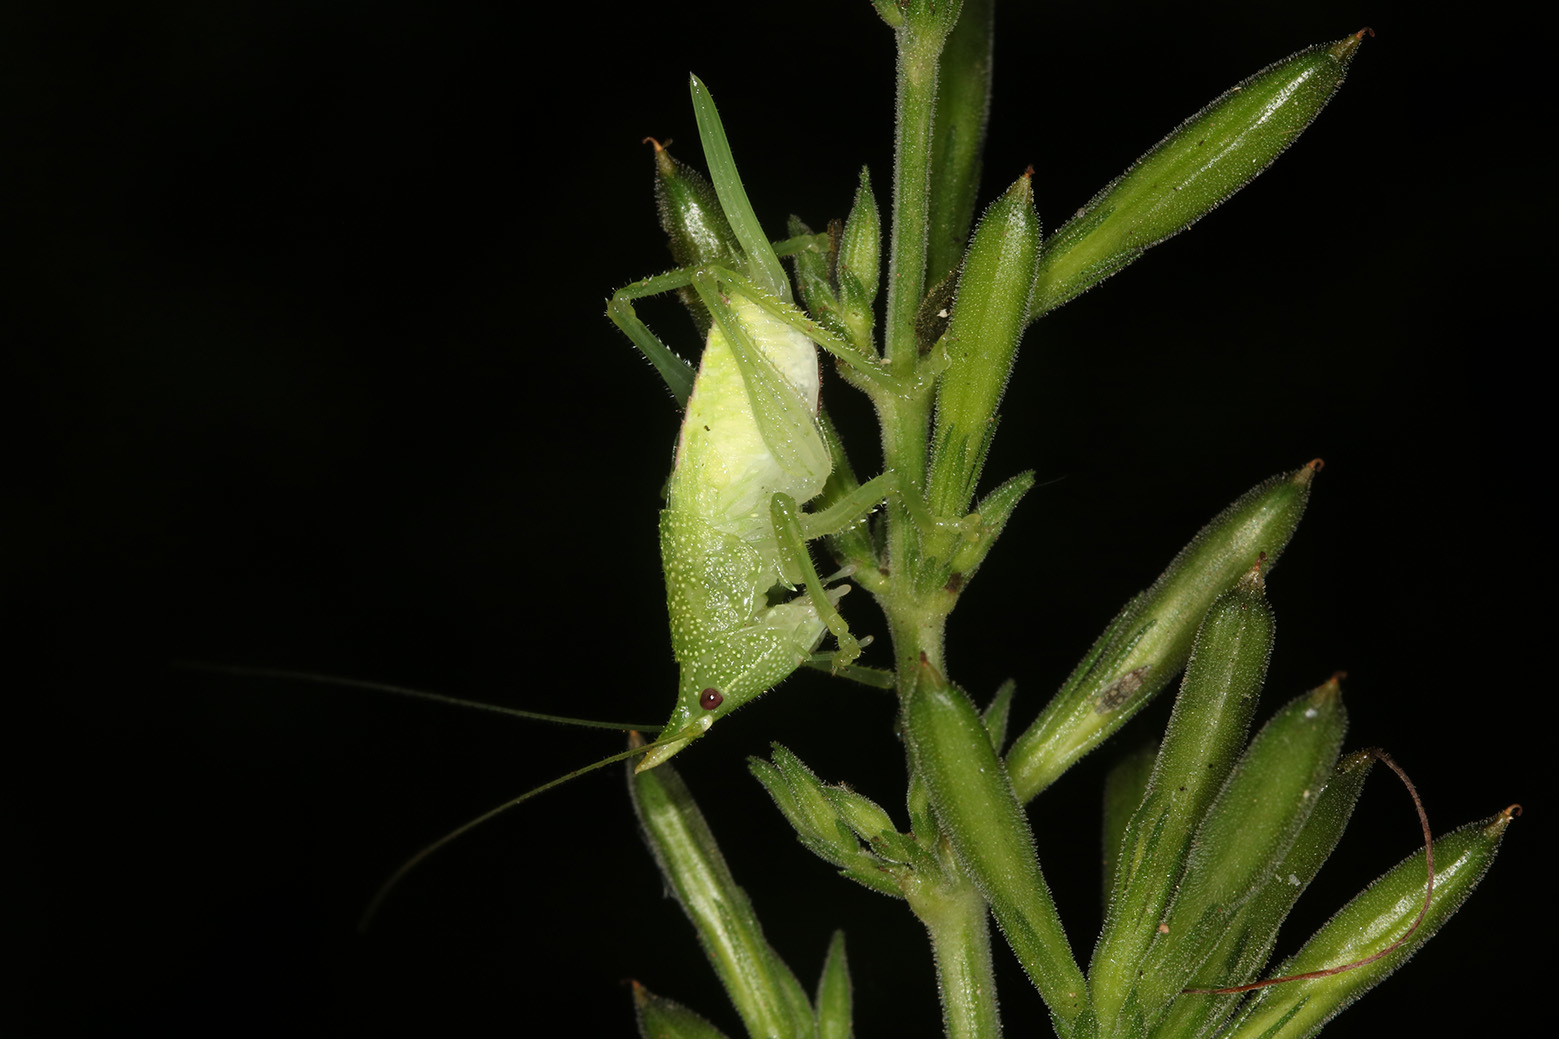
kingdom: Animalia
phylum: Arthropoda
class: Insecta
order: Orthoptera
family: Tettigoniidae
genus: Copiphora
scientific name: Copiphora producta
